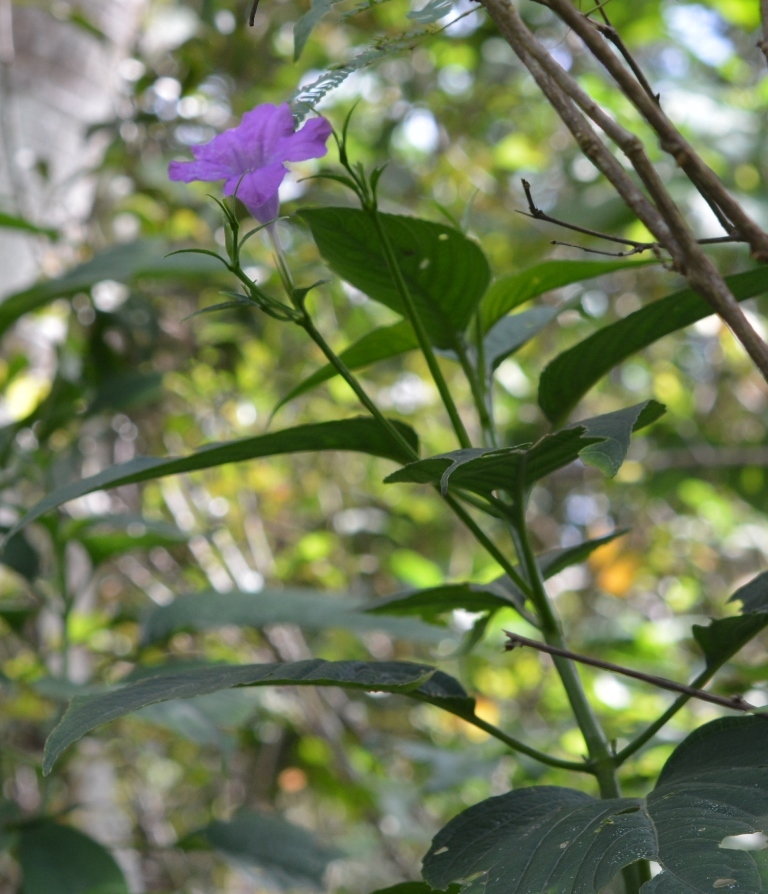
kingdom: Plantae
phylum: Tracheophyta
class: Magnoliopsida
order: Lamiales
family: Acanthaceae
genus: Ruellia
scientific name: Ruellia breedlovei
